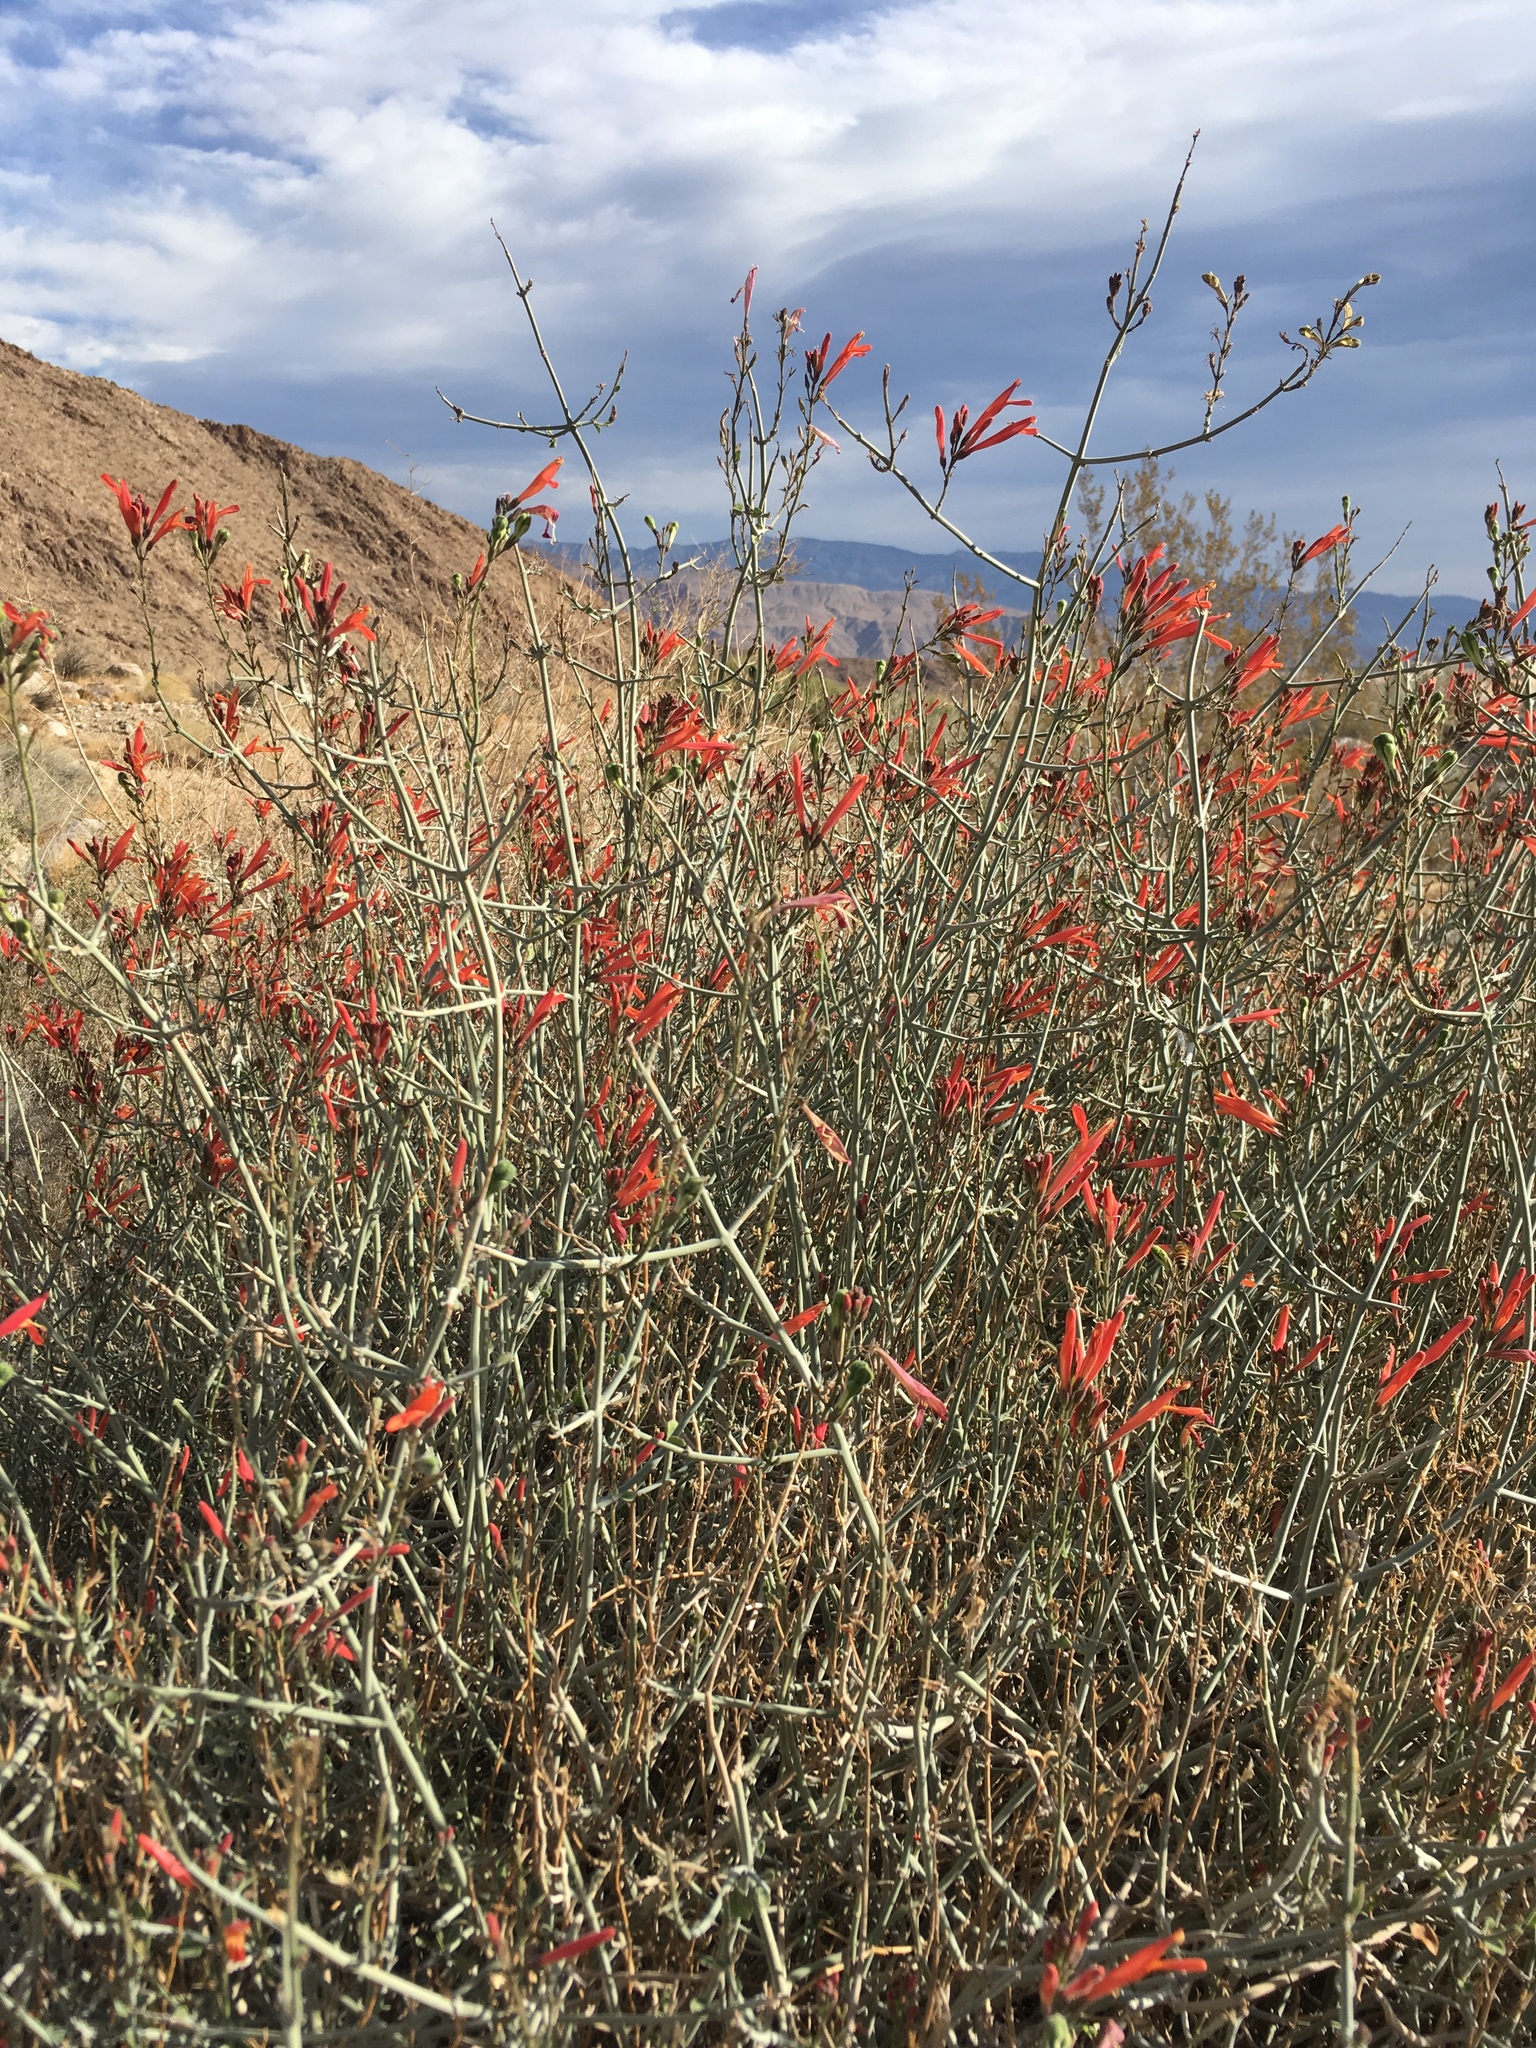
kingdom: Plantae
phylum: Tracheophyta
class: Magnoliopsida
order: Lamiales
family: Acanthaceae
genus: Justicia
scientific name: Justicia californica
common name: Chuparosa-honeysuckle
